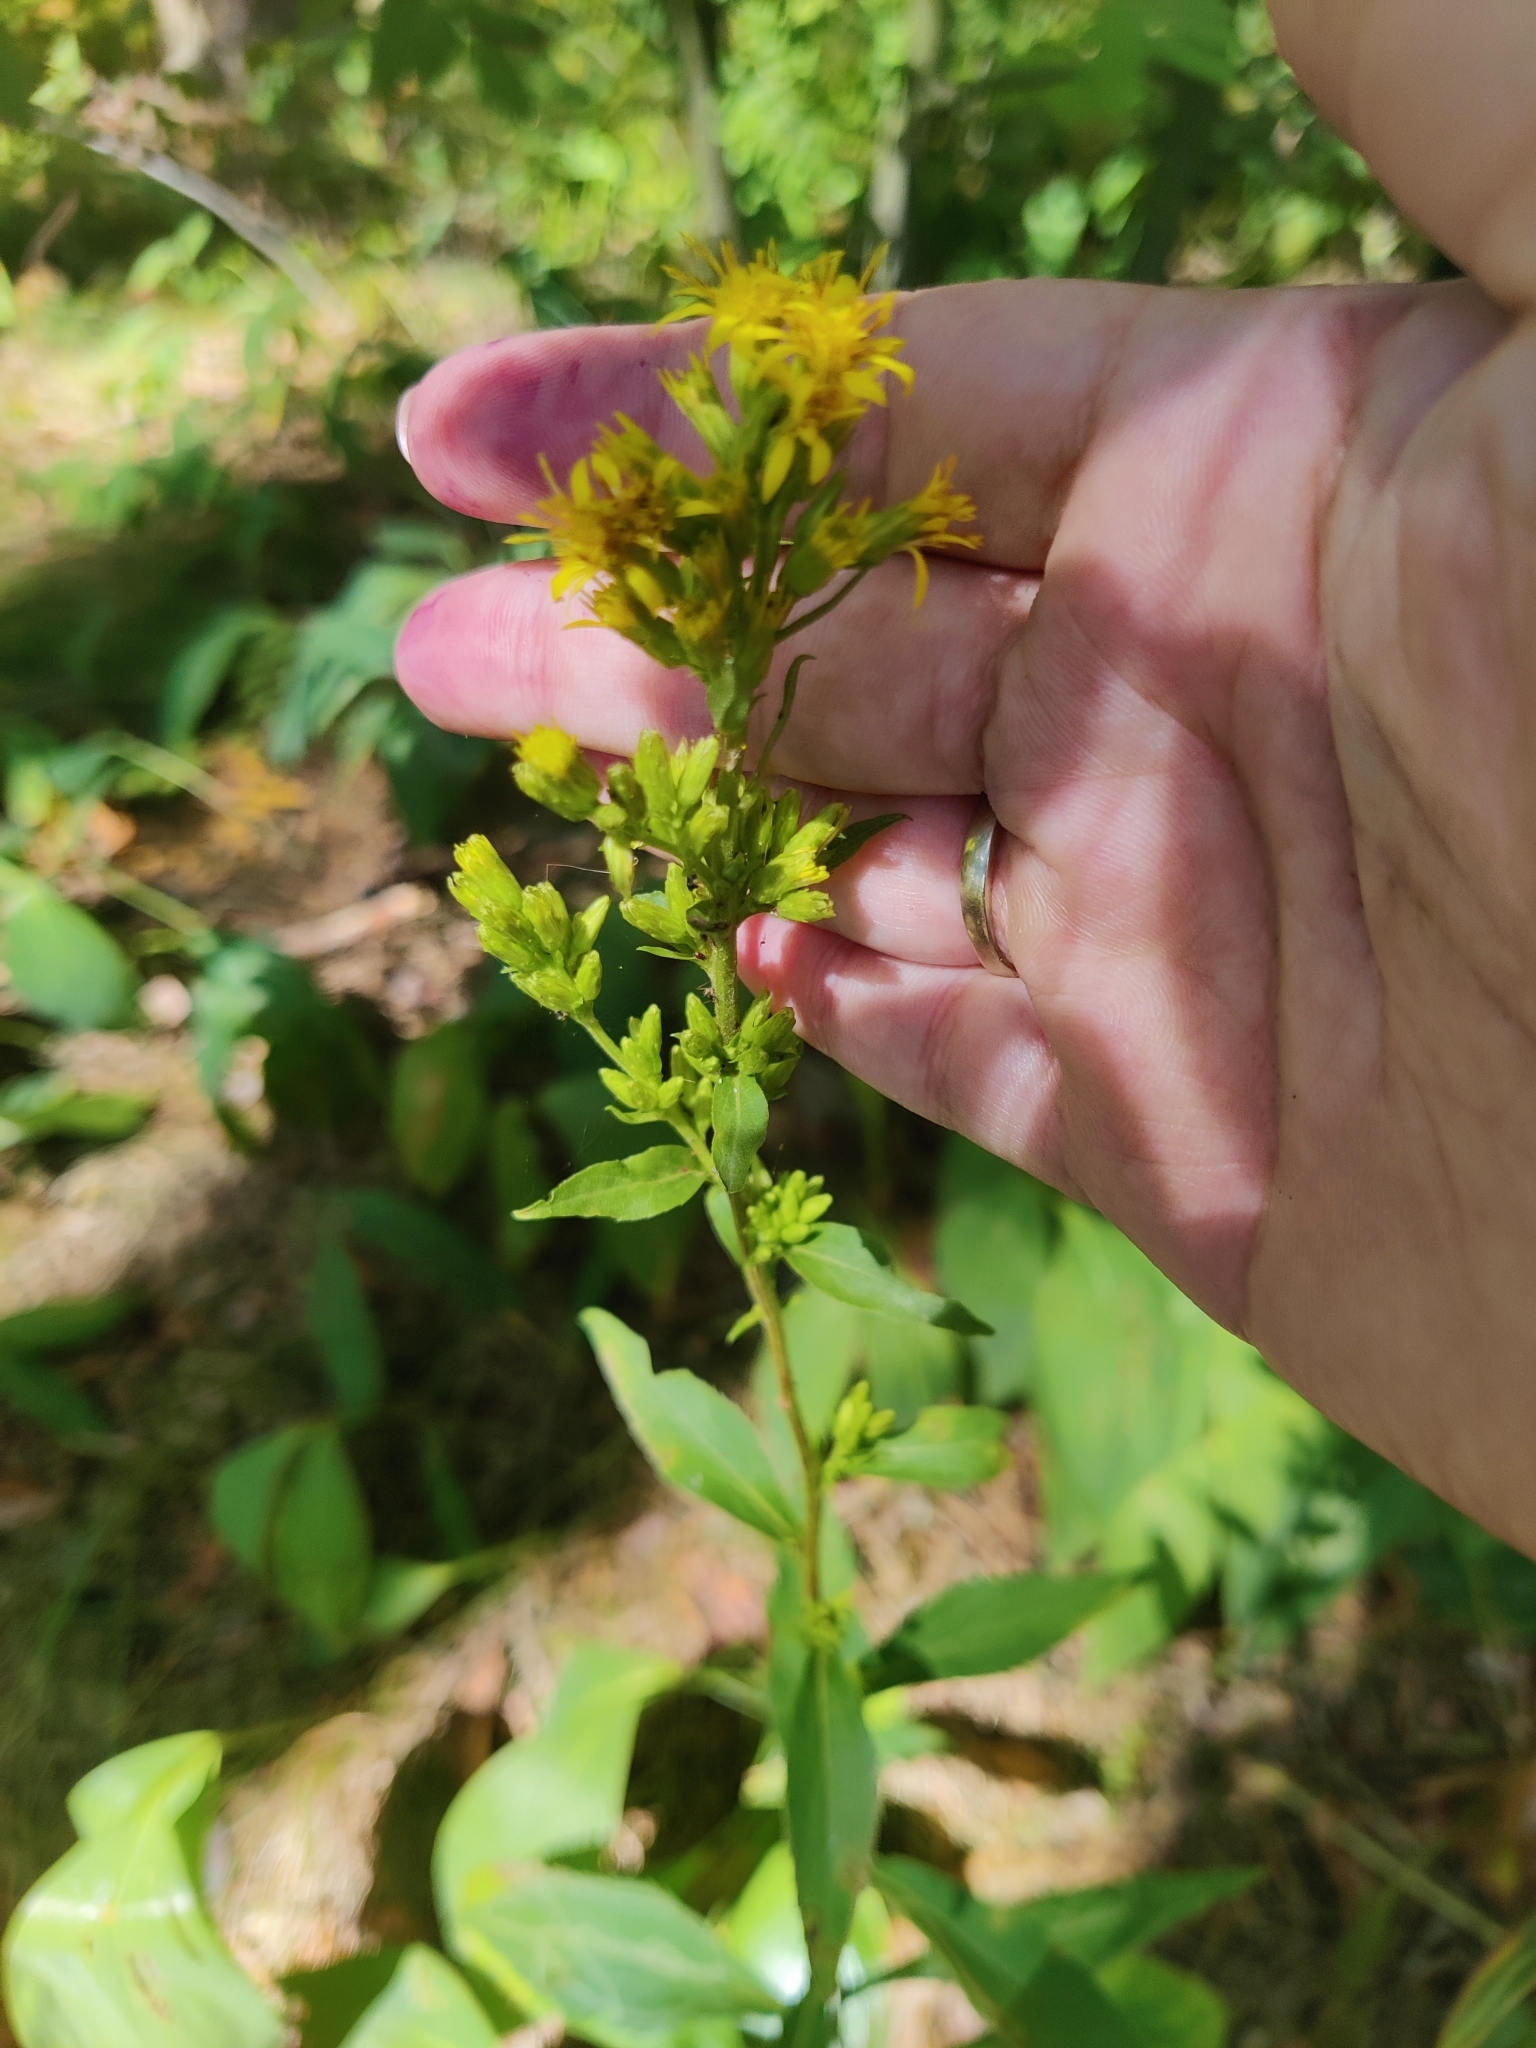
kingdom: Plantae
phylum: Tracheophyta
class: Magnoliopsida
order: Asterales
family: Asteraceae
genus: Solidago
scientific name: Solidago virgaurea
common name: Goldenrod
